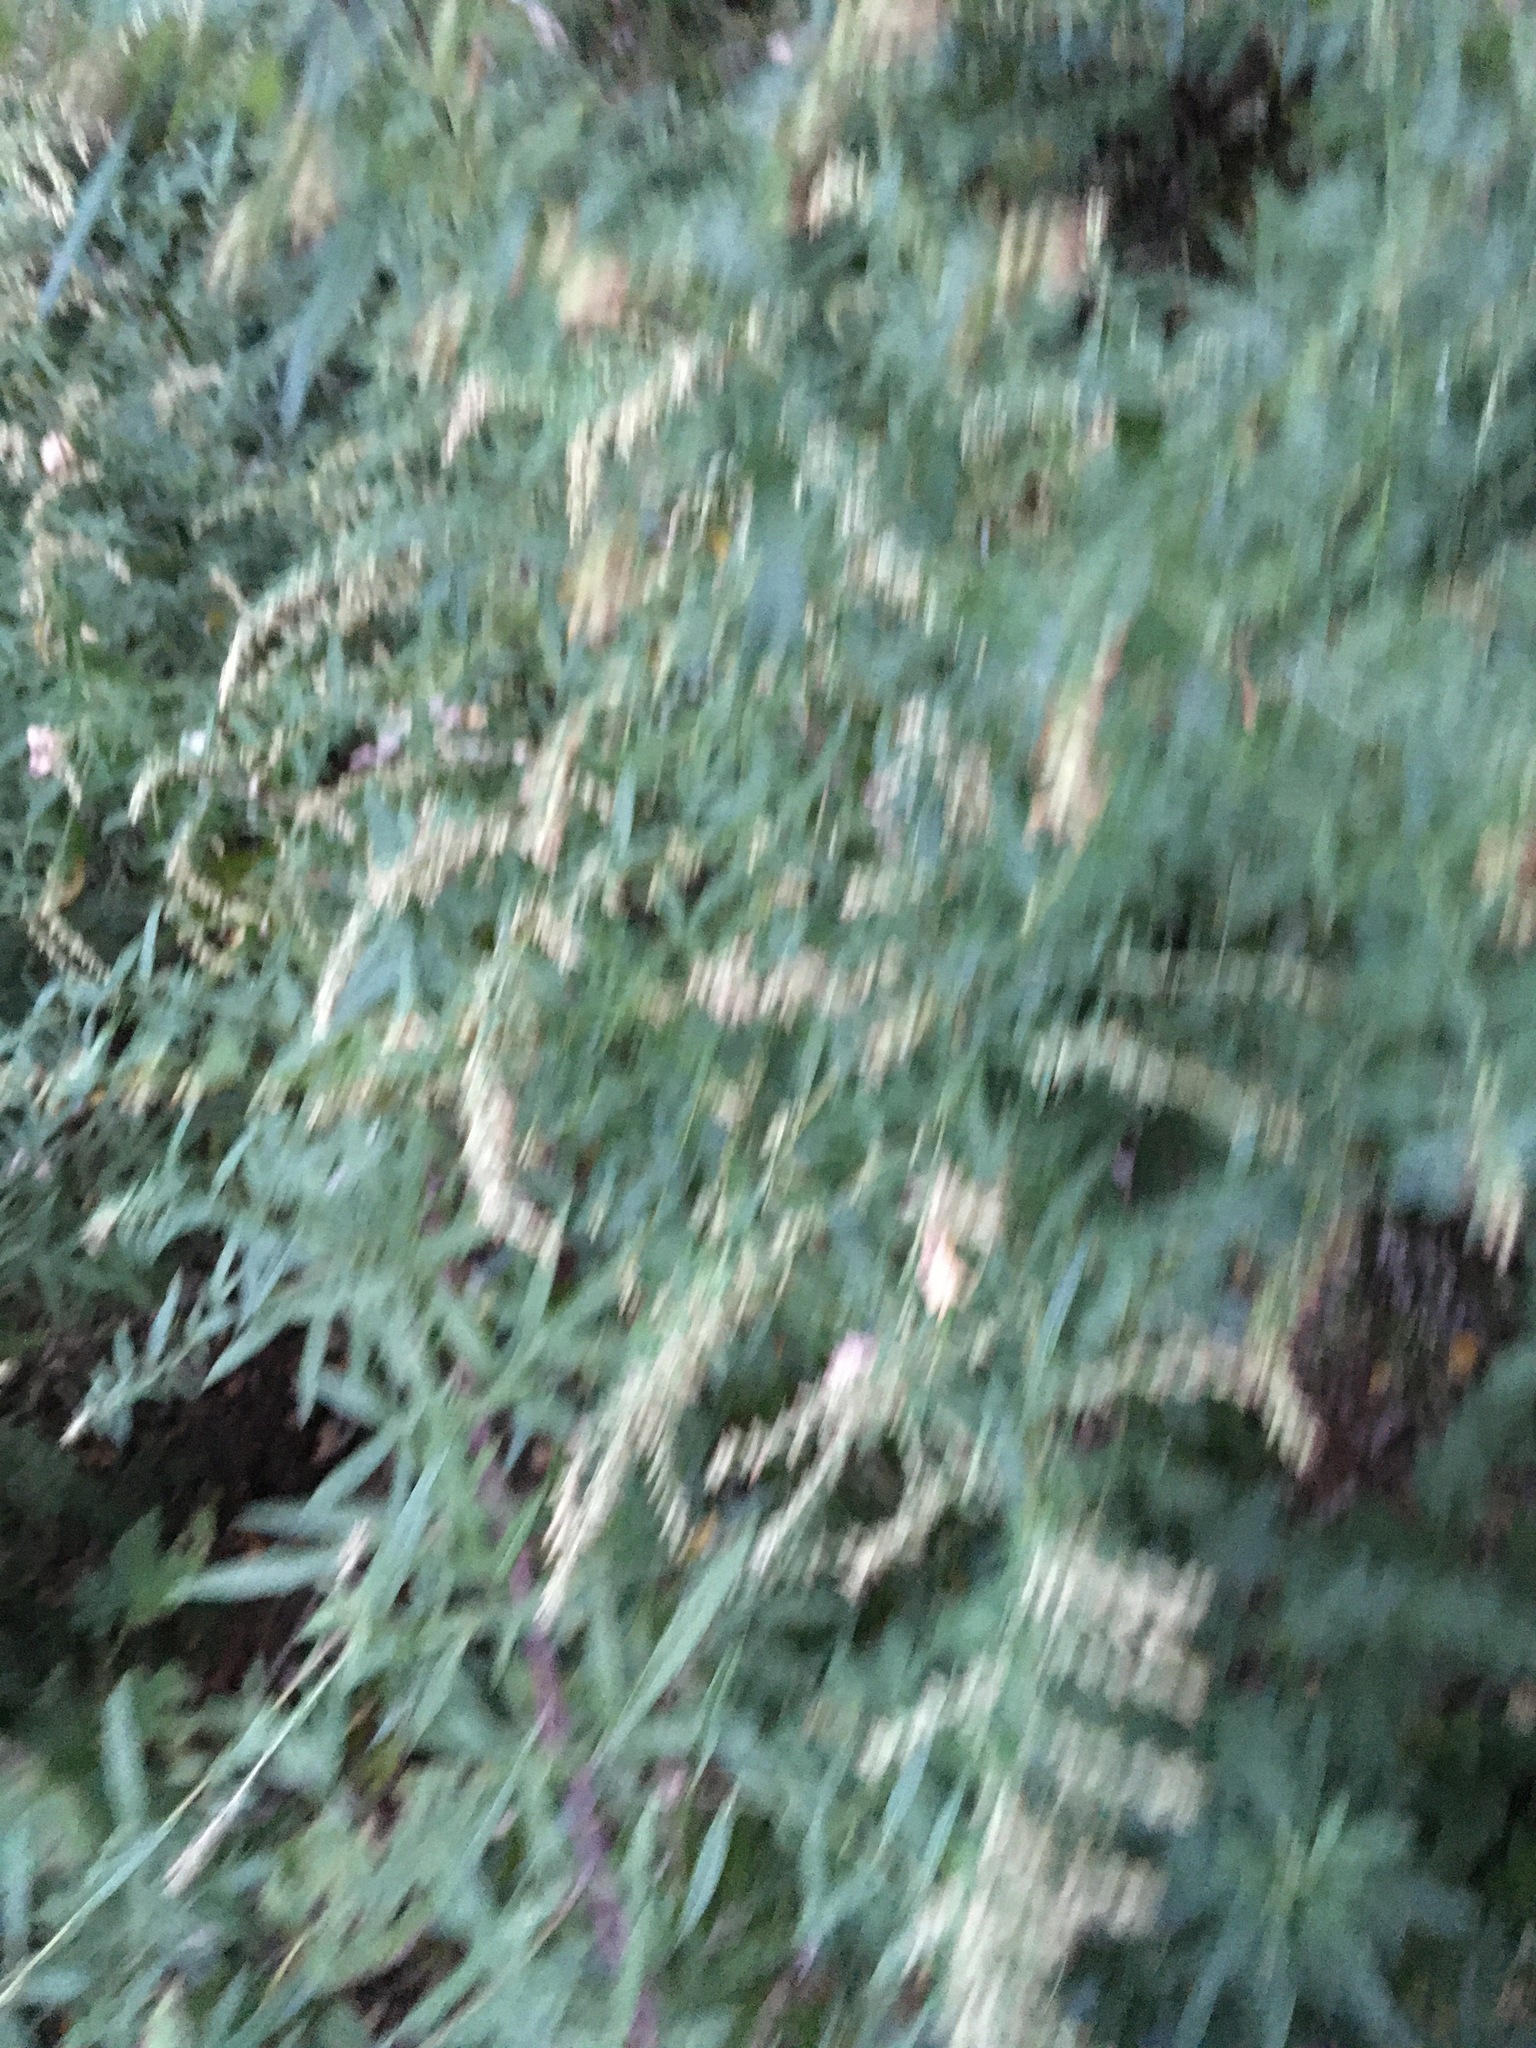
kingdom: Plantae
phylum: Tracheophyta
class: Magnoliopsida
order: Asterales
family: Asteraceae
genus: Artemisia
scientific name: Artemisia vulgaris
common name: Mugwort
